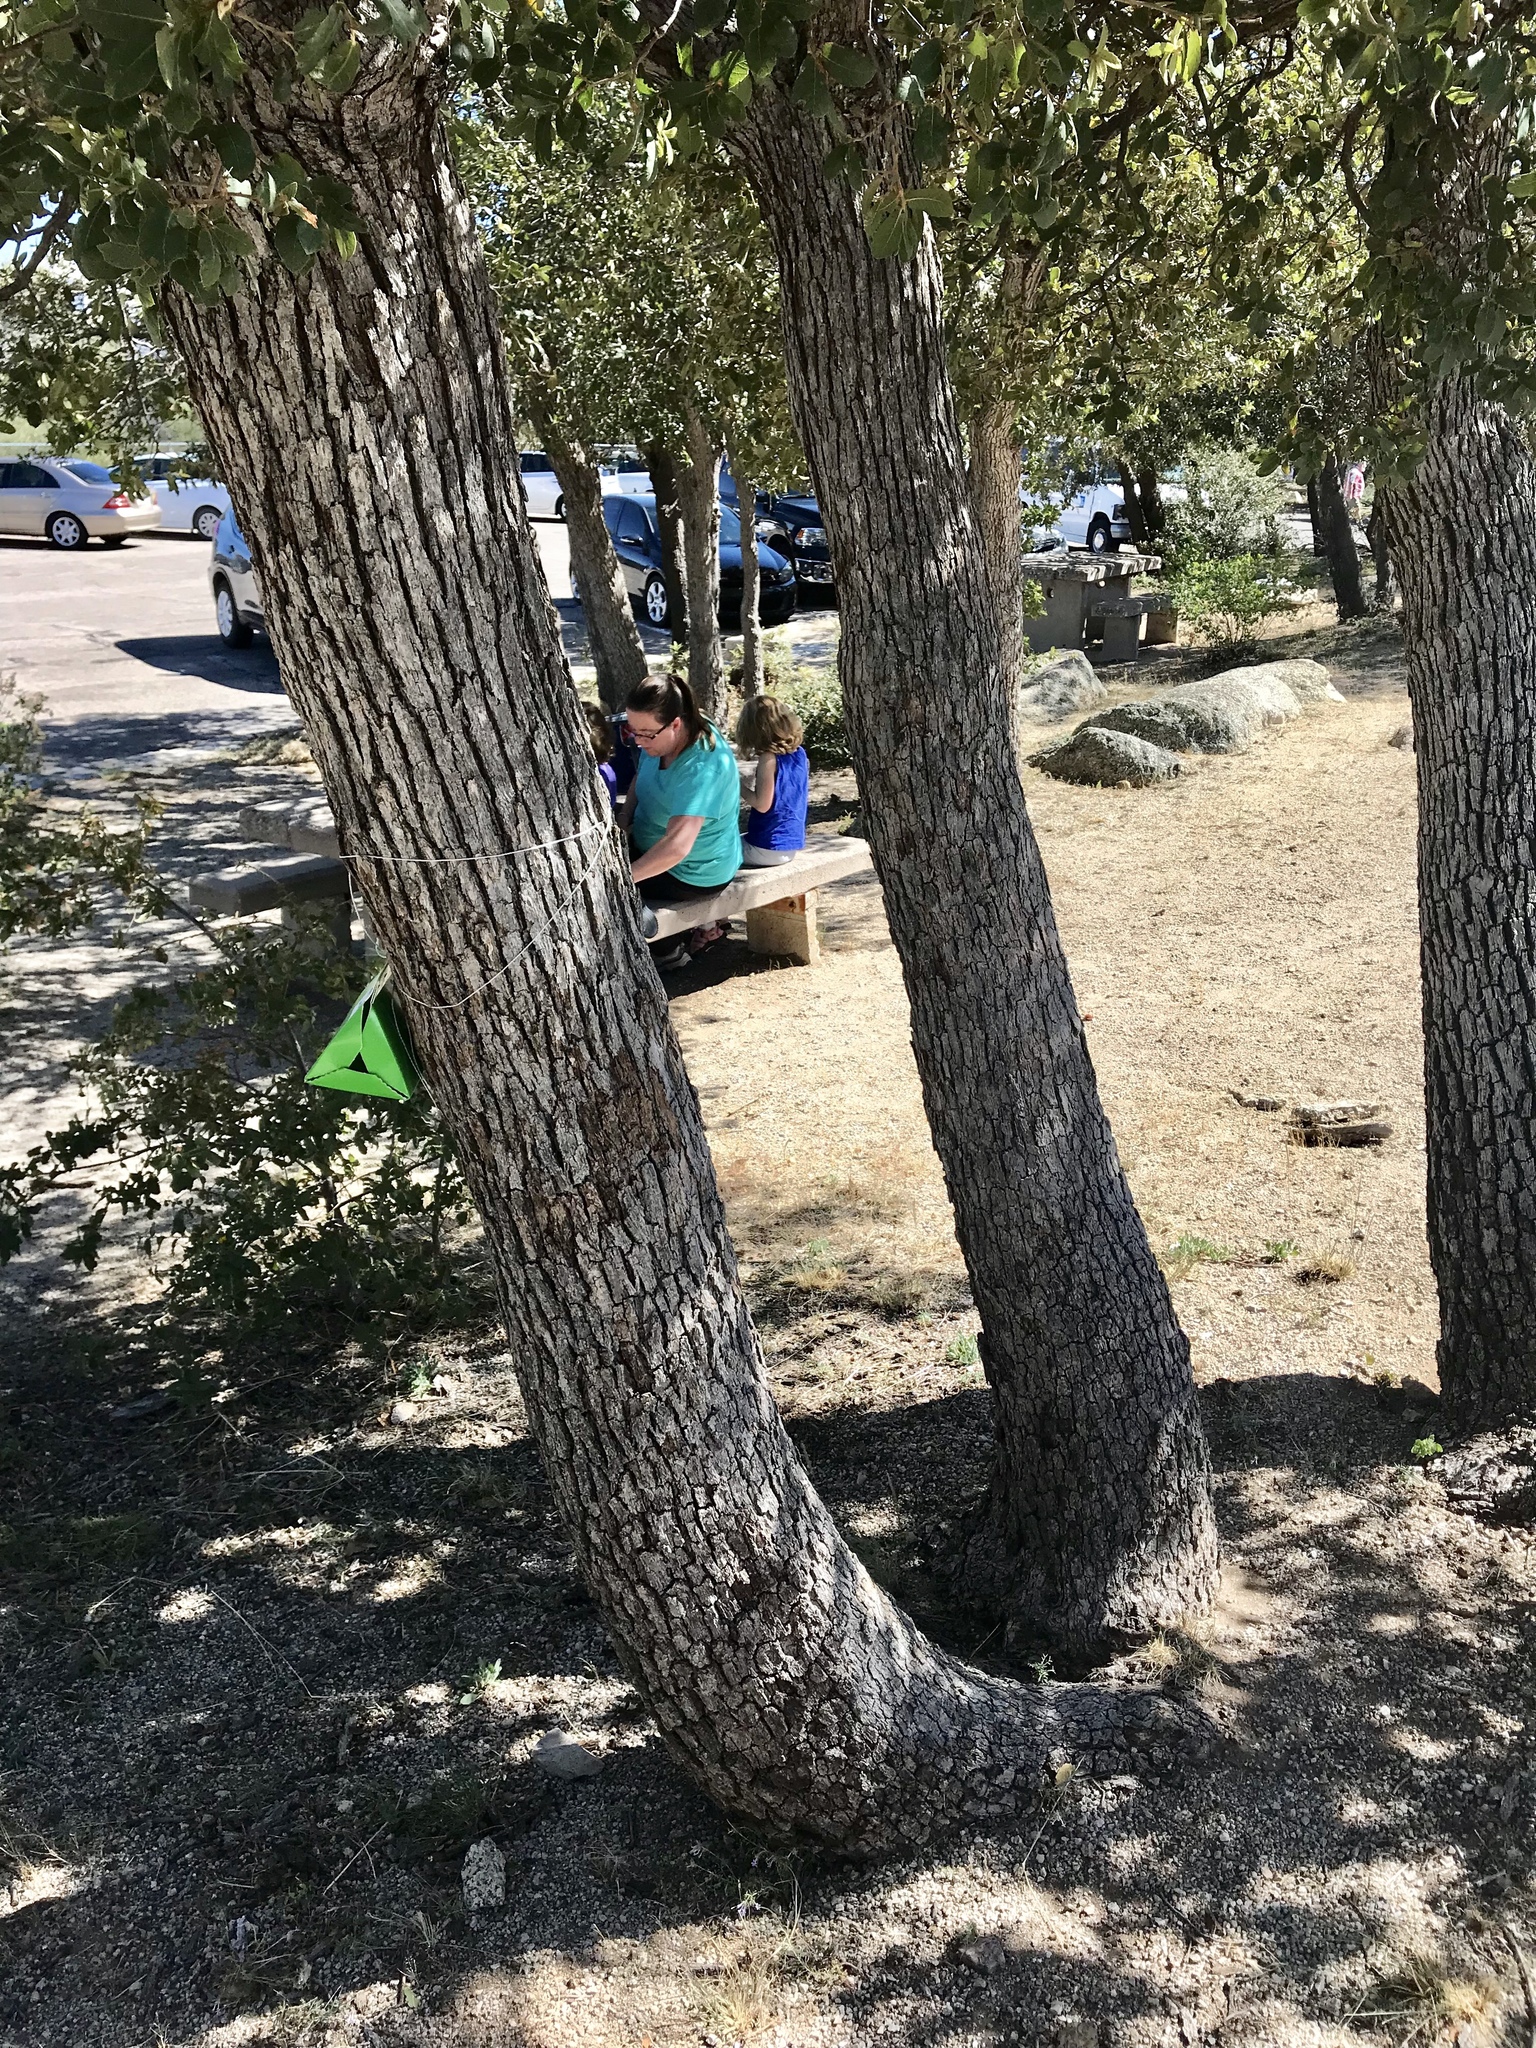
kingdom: Plantae
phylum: Tracheophyta
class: Magnoliopsida
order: Fagales
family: Fagaceae
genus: Quercus
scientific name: Quercus arizonica
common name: Arizona white oak
